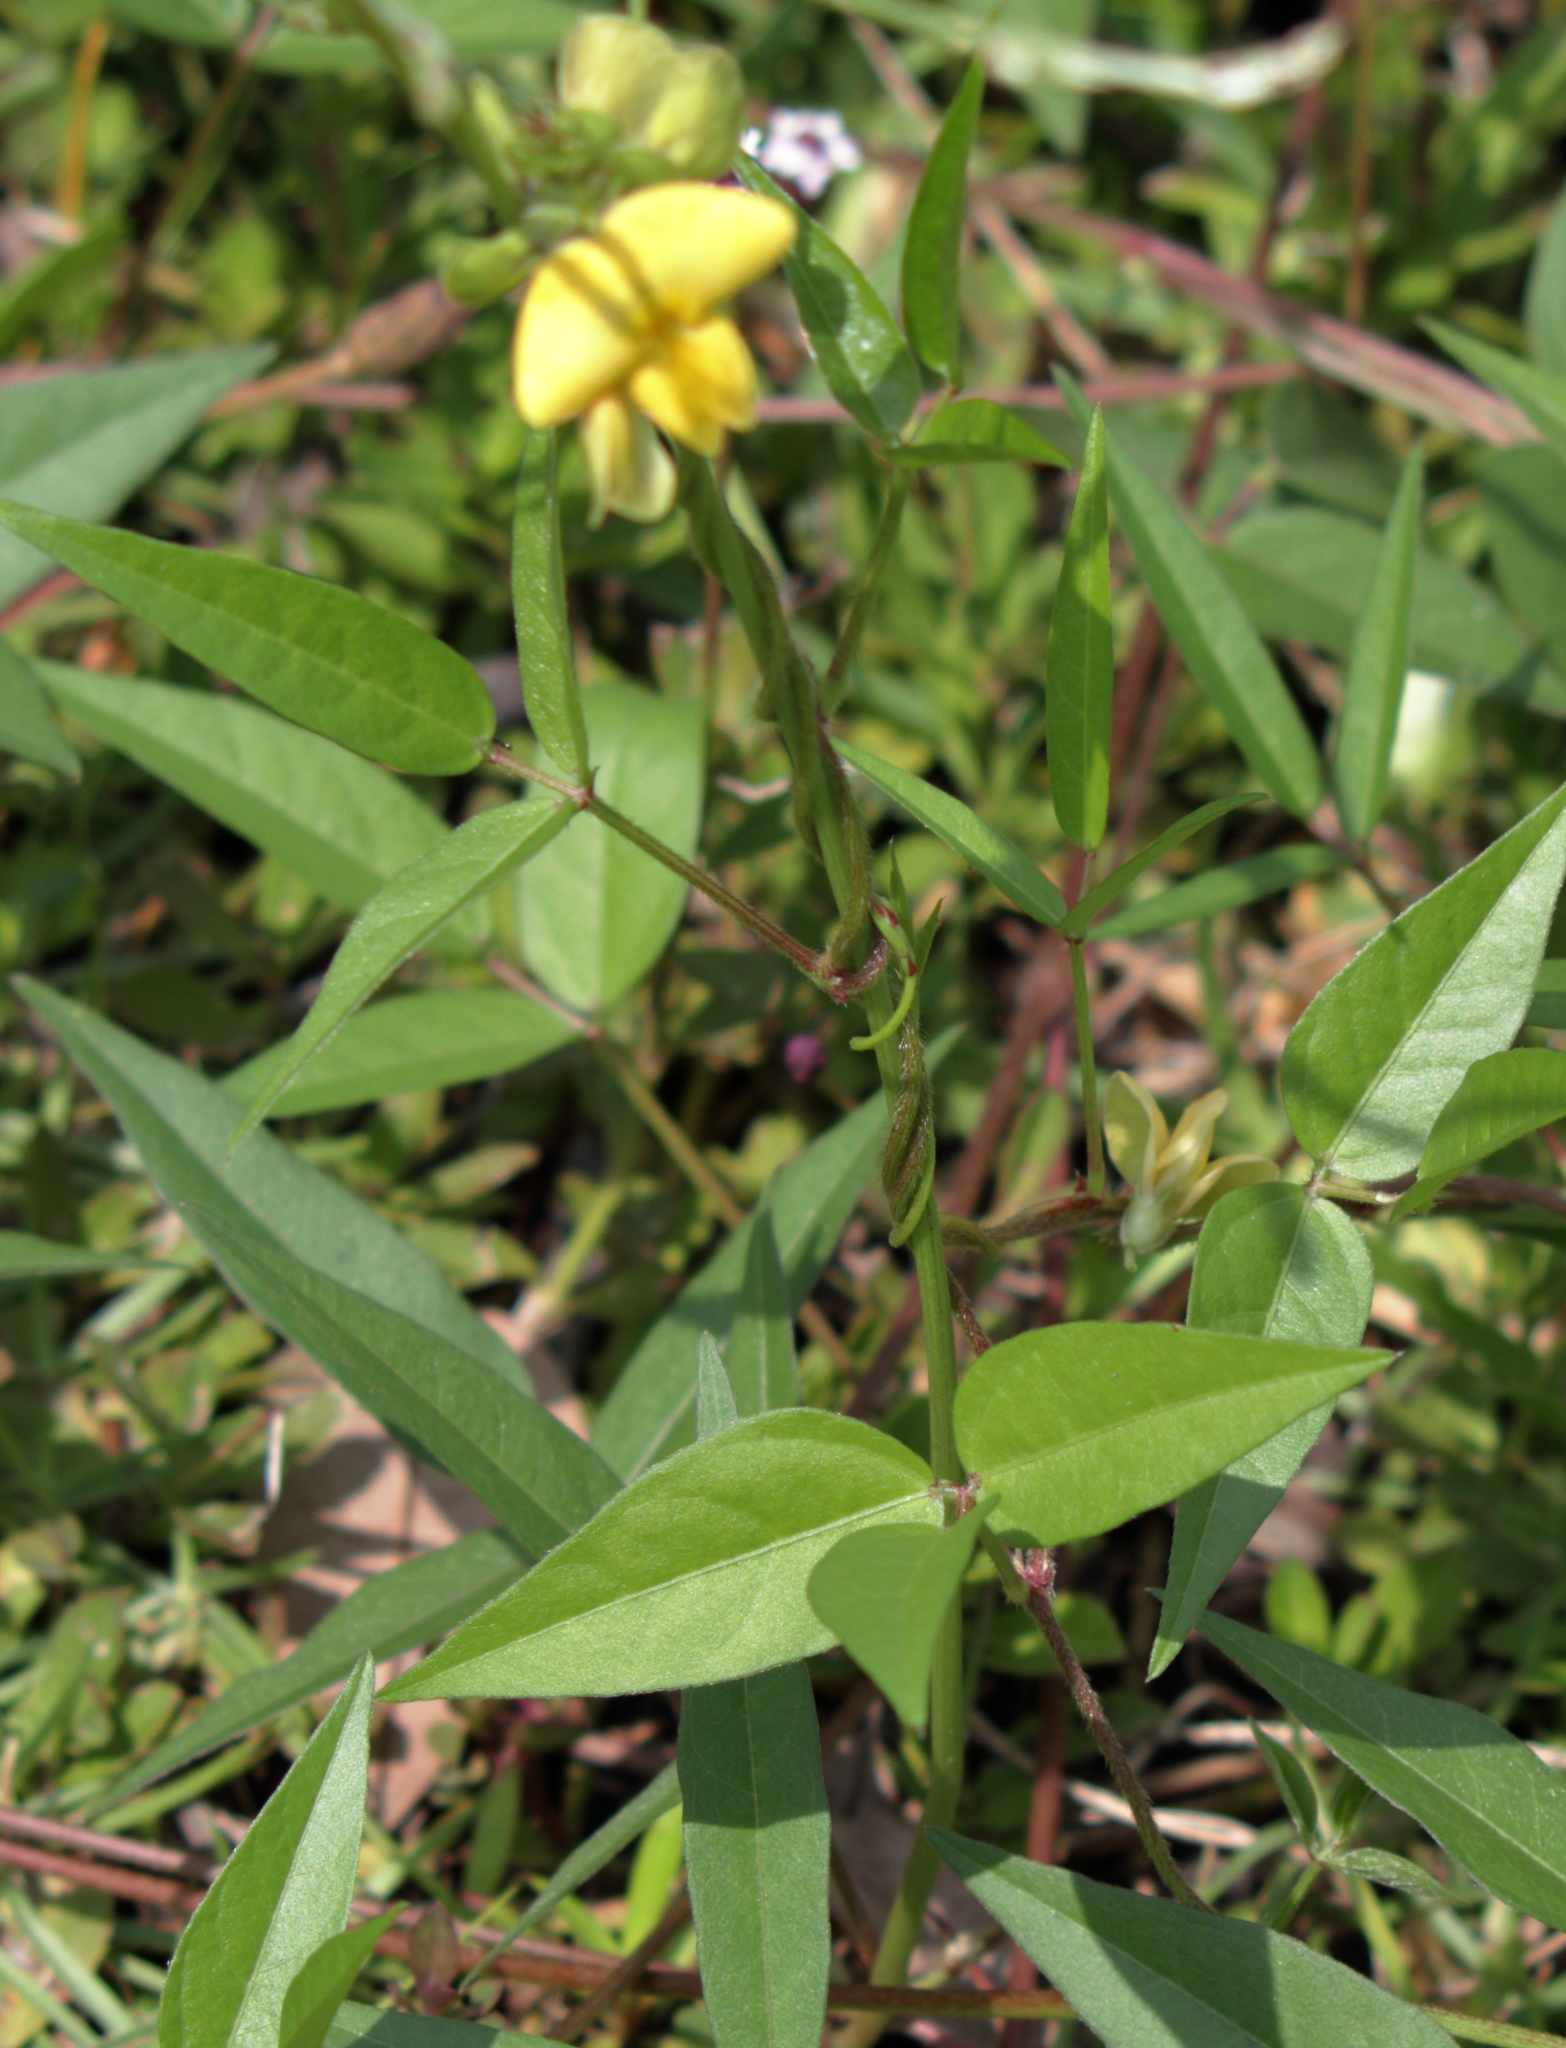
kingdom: Plantae
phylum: Tracheophyta
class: Magnoliopsida
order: Fabales
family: Fabaceae
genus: Vigna
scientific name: Vigna luteola
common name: Hairypod cowpea
